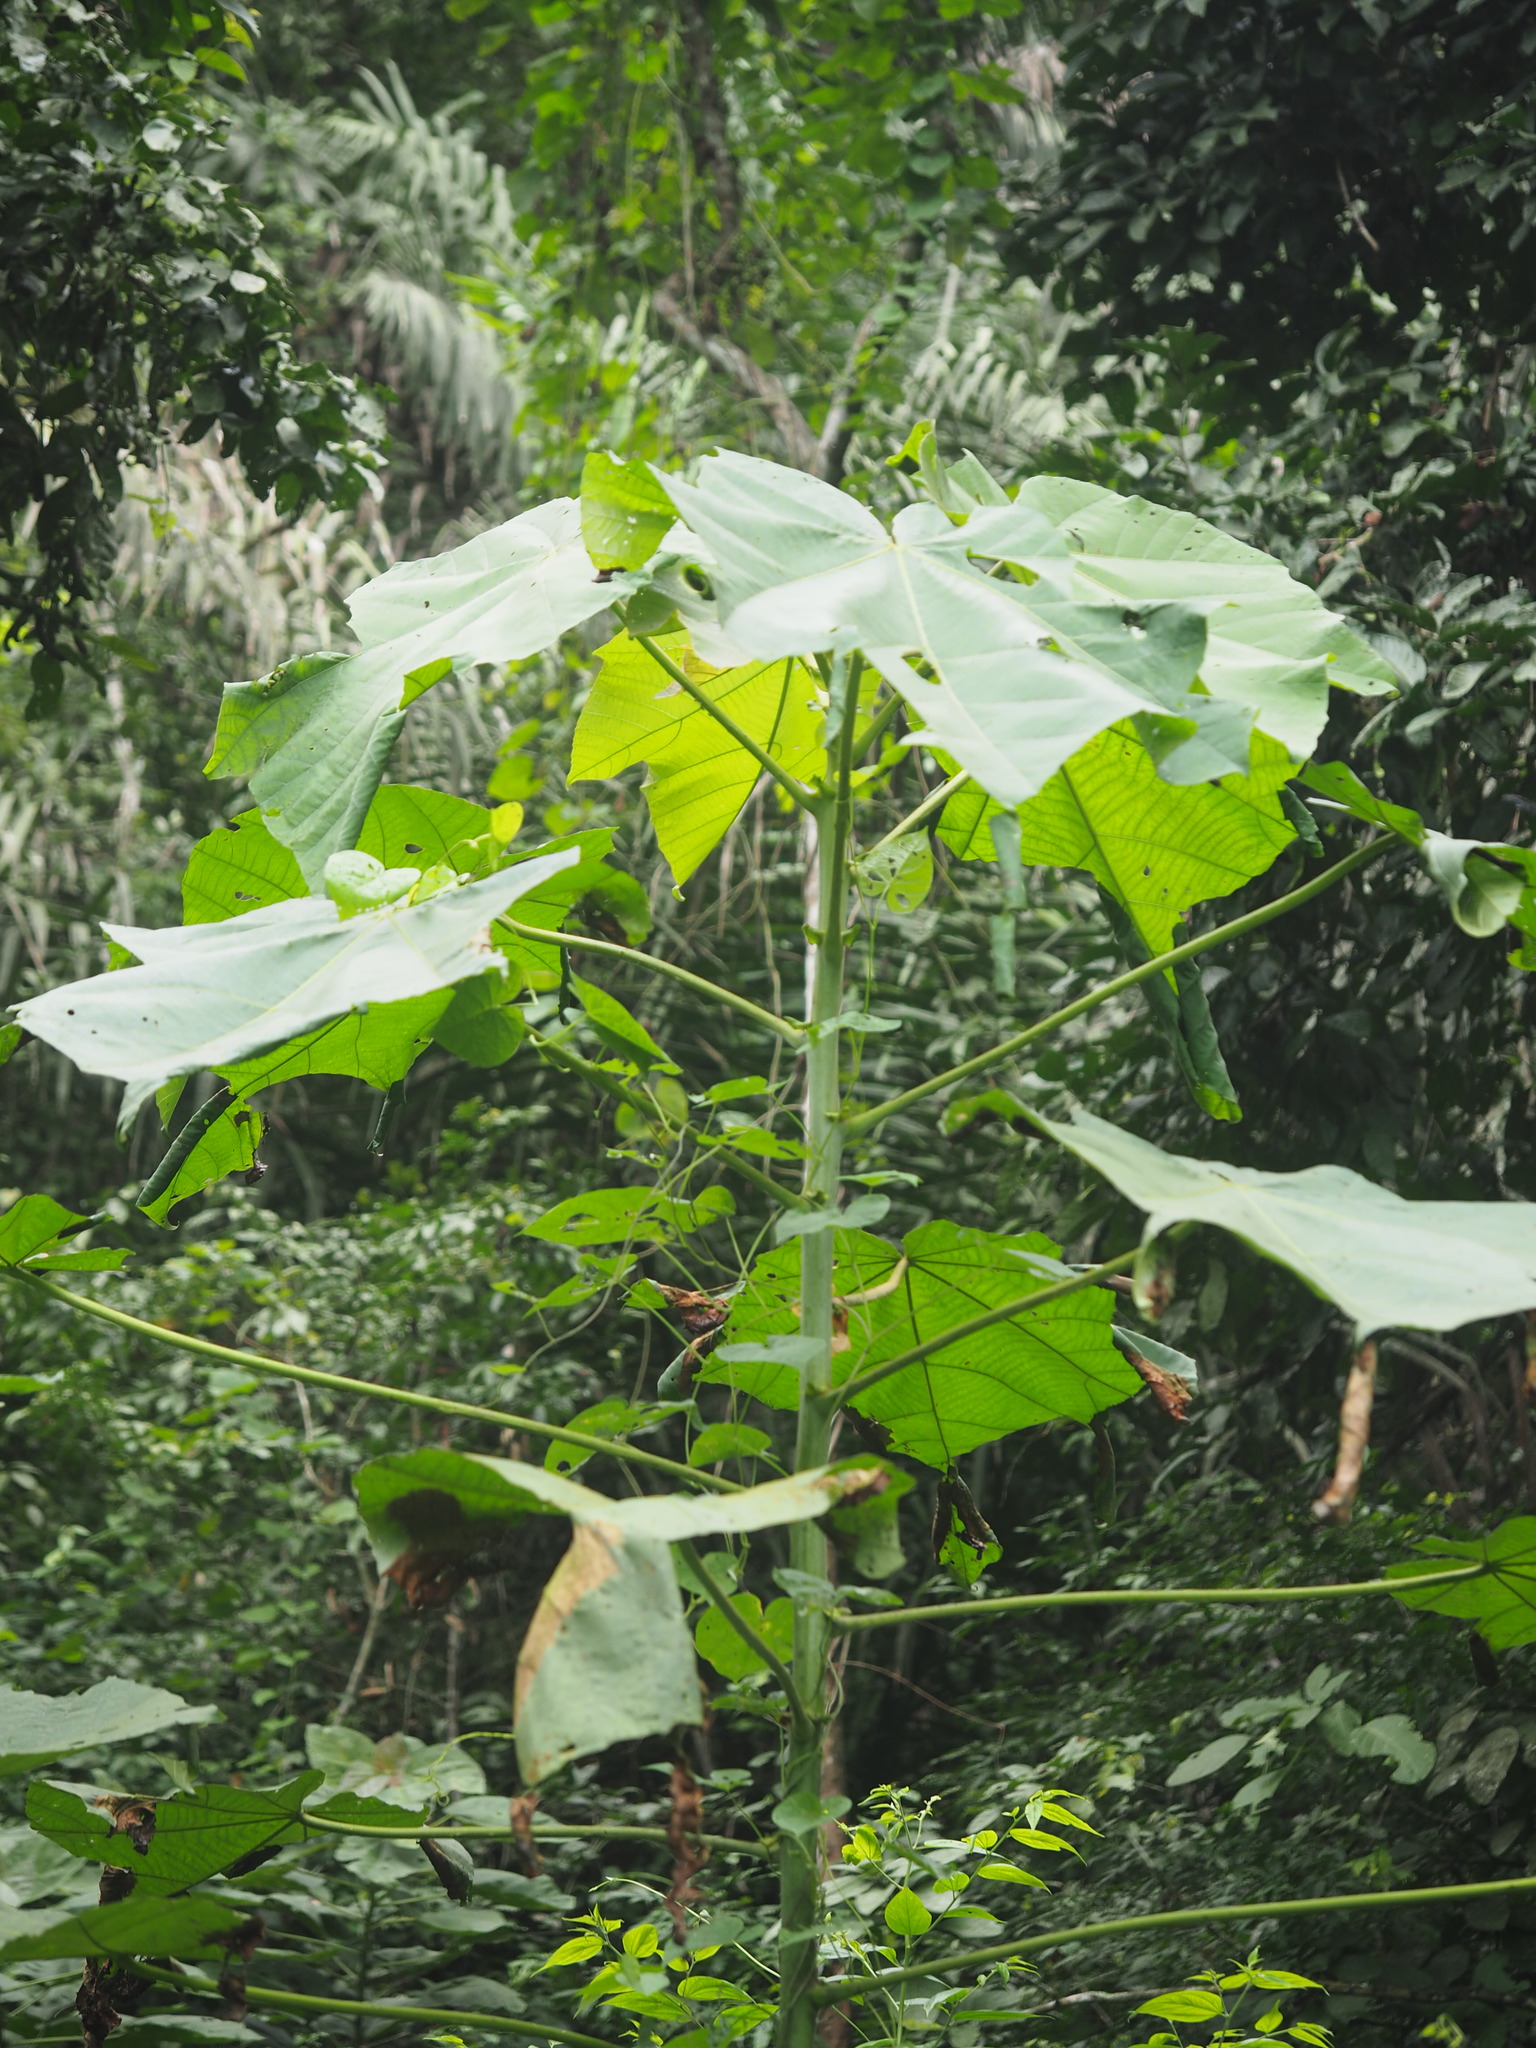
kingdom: Plantae
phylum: Tracheophyta
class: Magnoliopsida
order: Malvales
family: Malvaceae
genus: Ochroma
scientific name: Ochroma pyramidale
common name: Balsa
